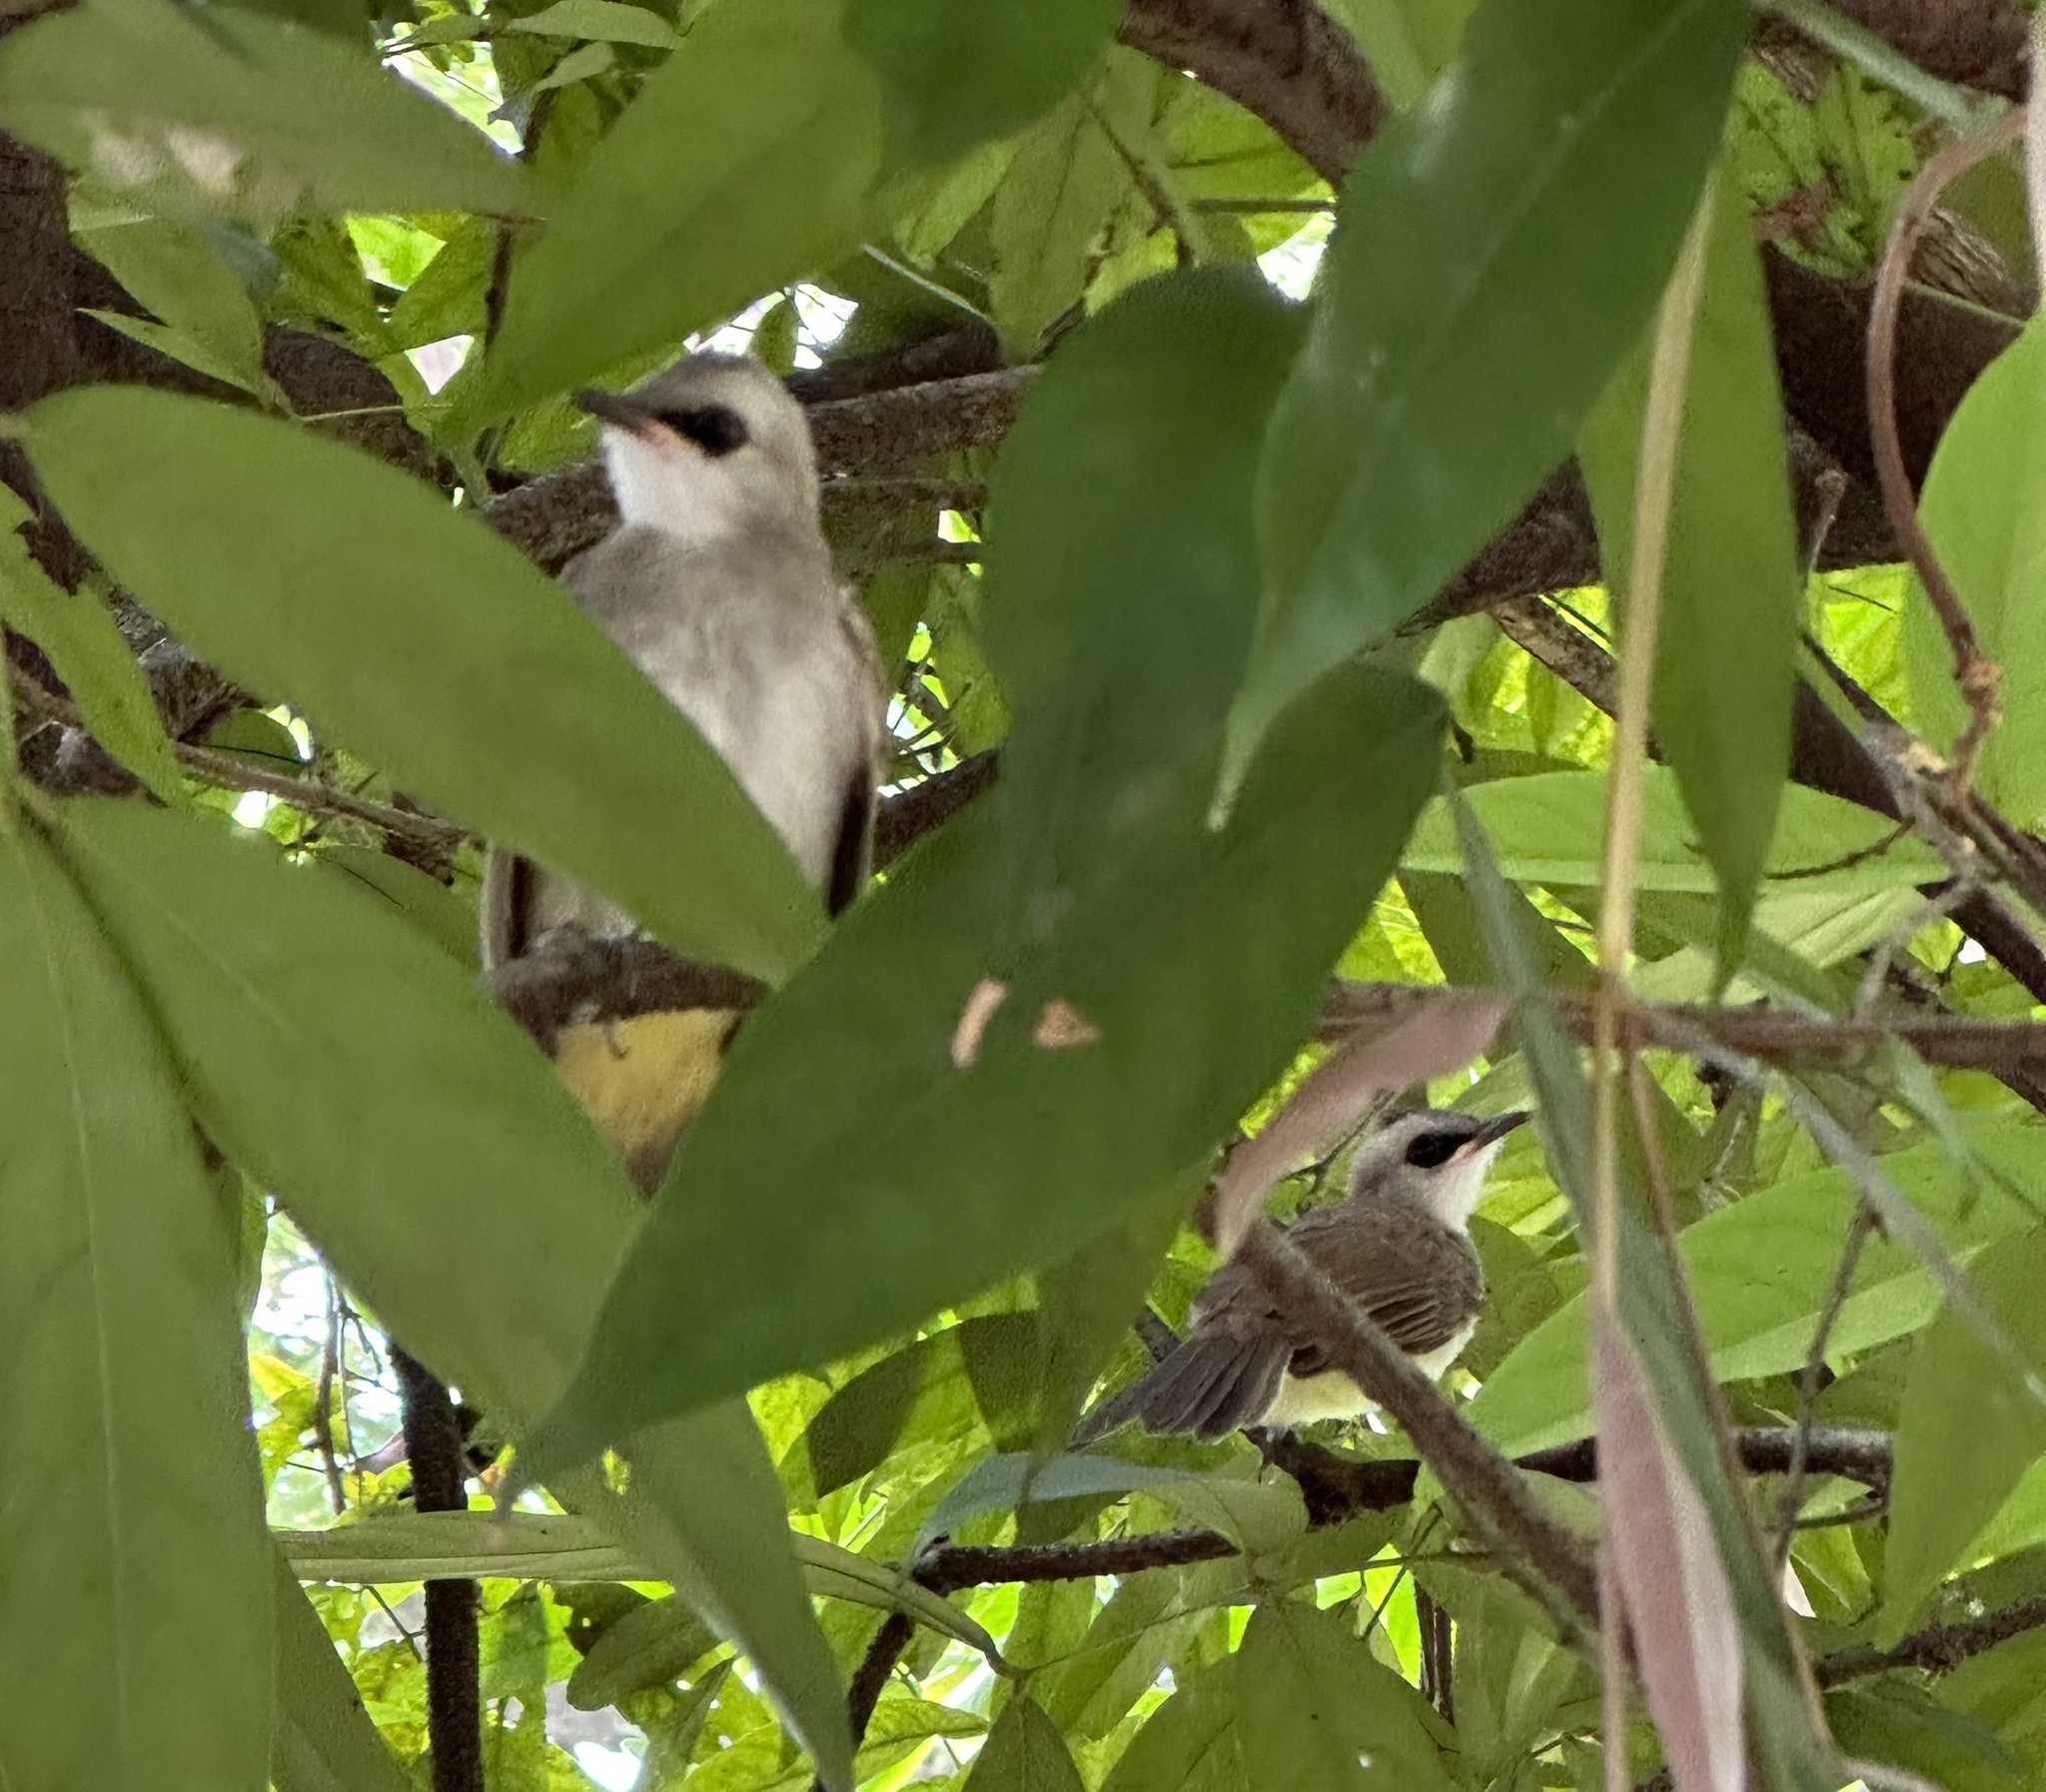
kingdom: Animalia
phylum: Chordata
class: Aves
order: Passeriformes
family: Pycnonotidae
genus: Pycnonotus
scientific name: Pycnonotus goiavier
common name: Yellow-vented bulbul
